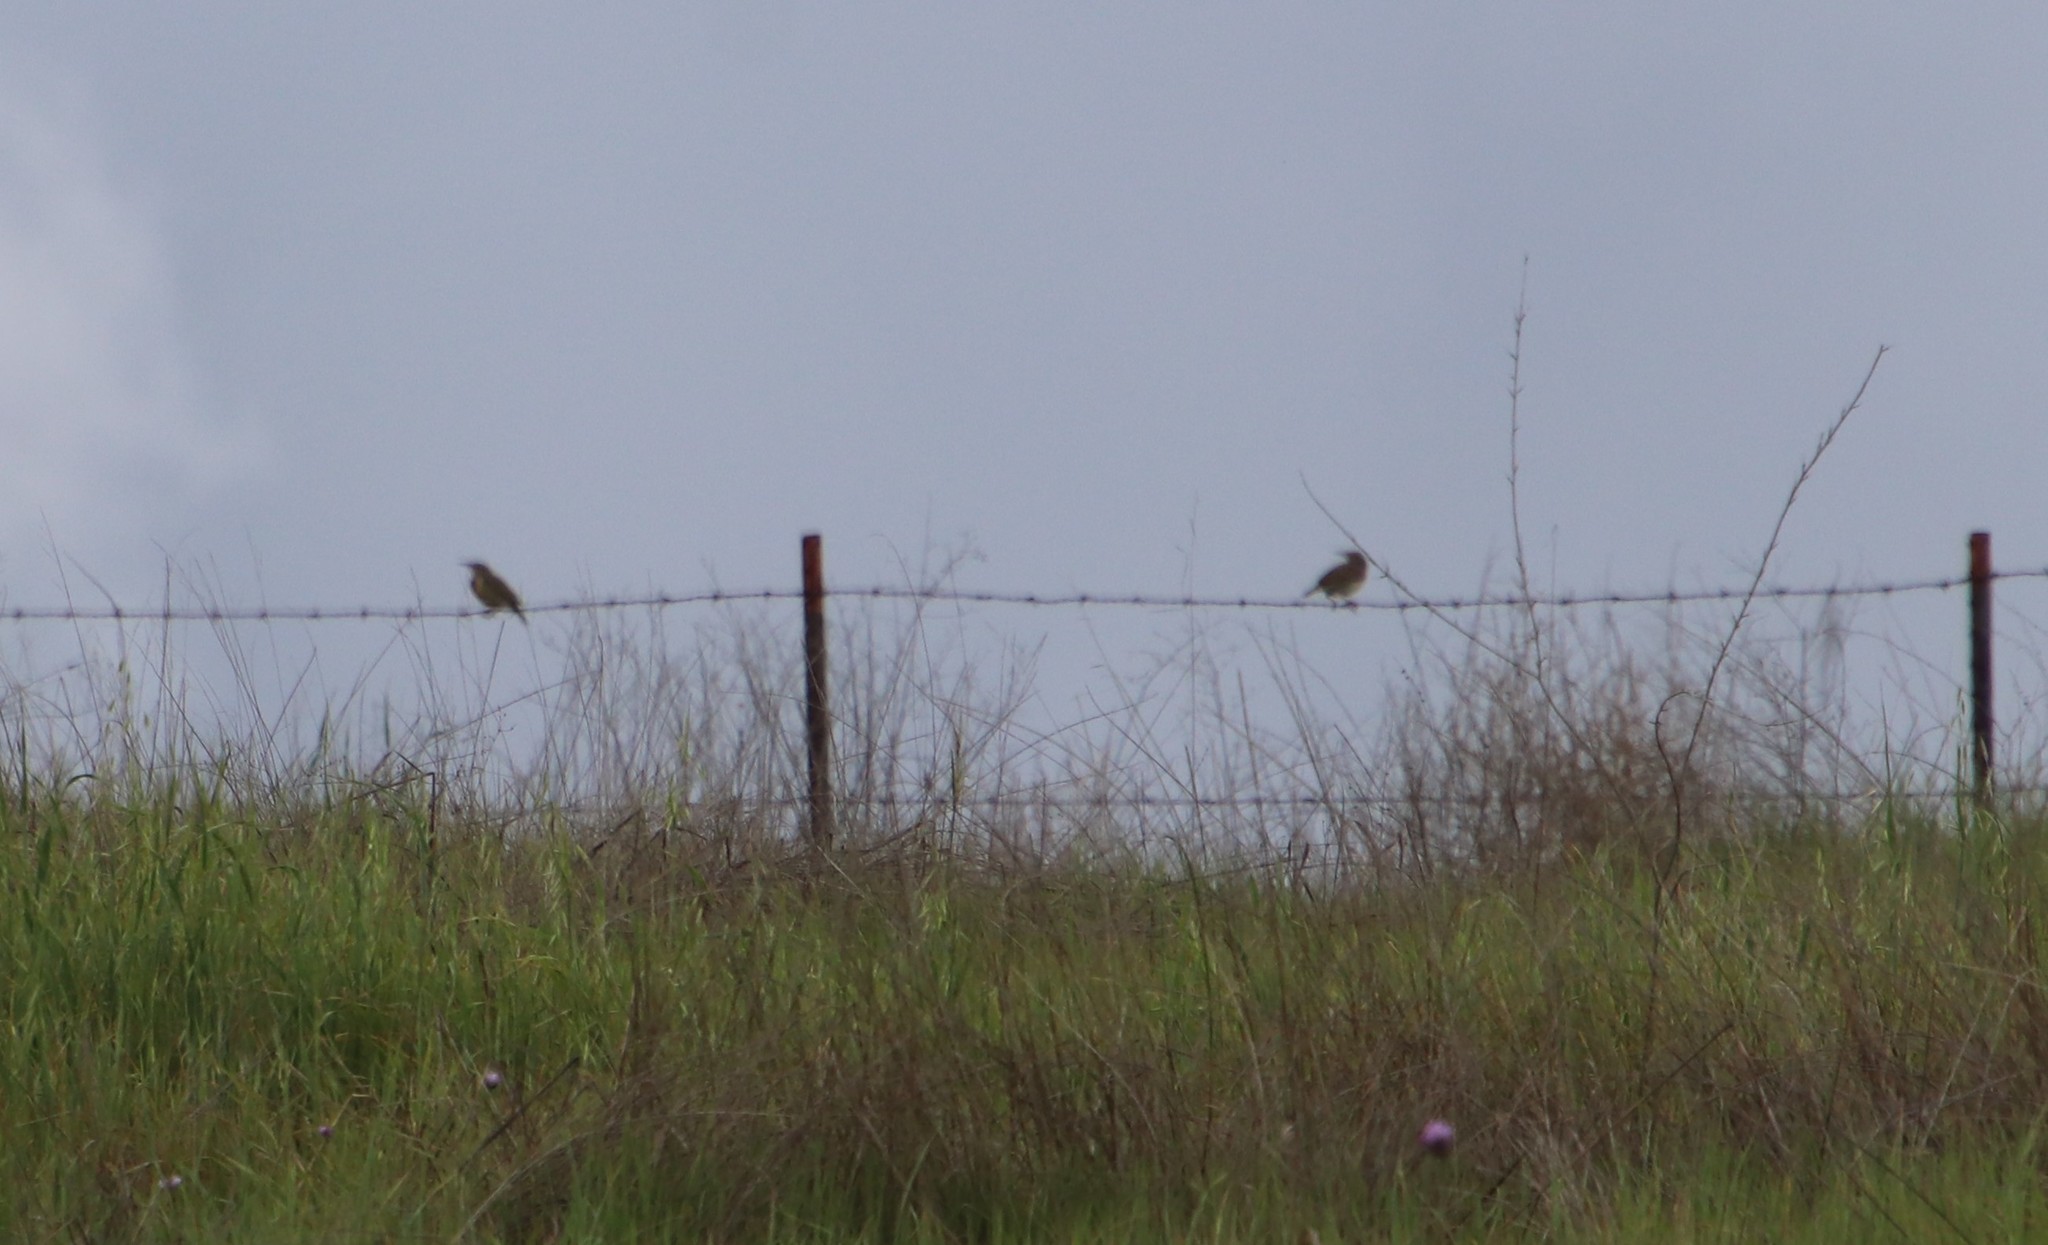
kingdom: Animalia
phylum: Chordata
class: Aves
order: Passeriformes
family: Icteridae
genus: Sturnella
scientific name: Sturnella neglecta
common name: Western meadowlark
